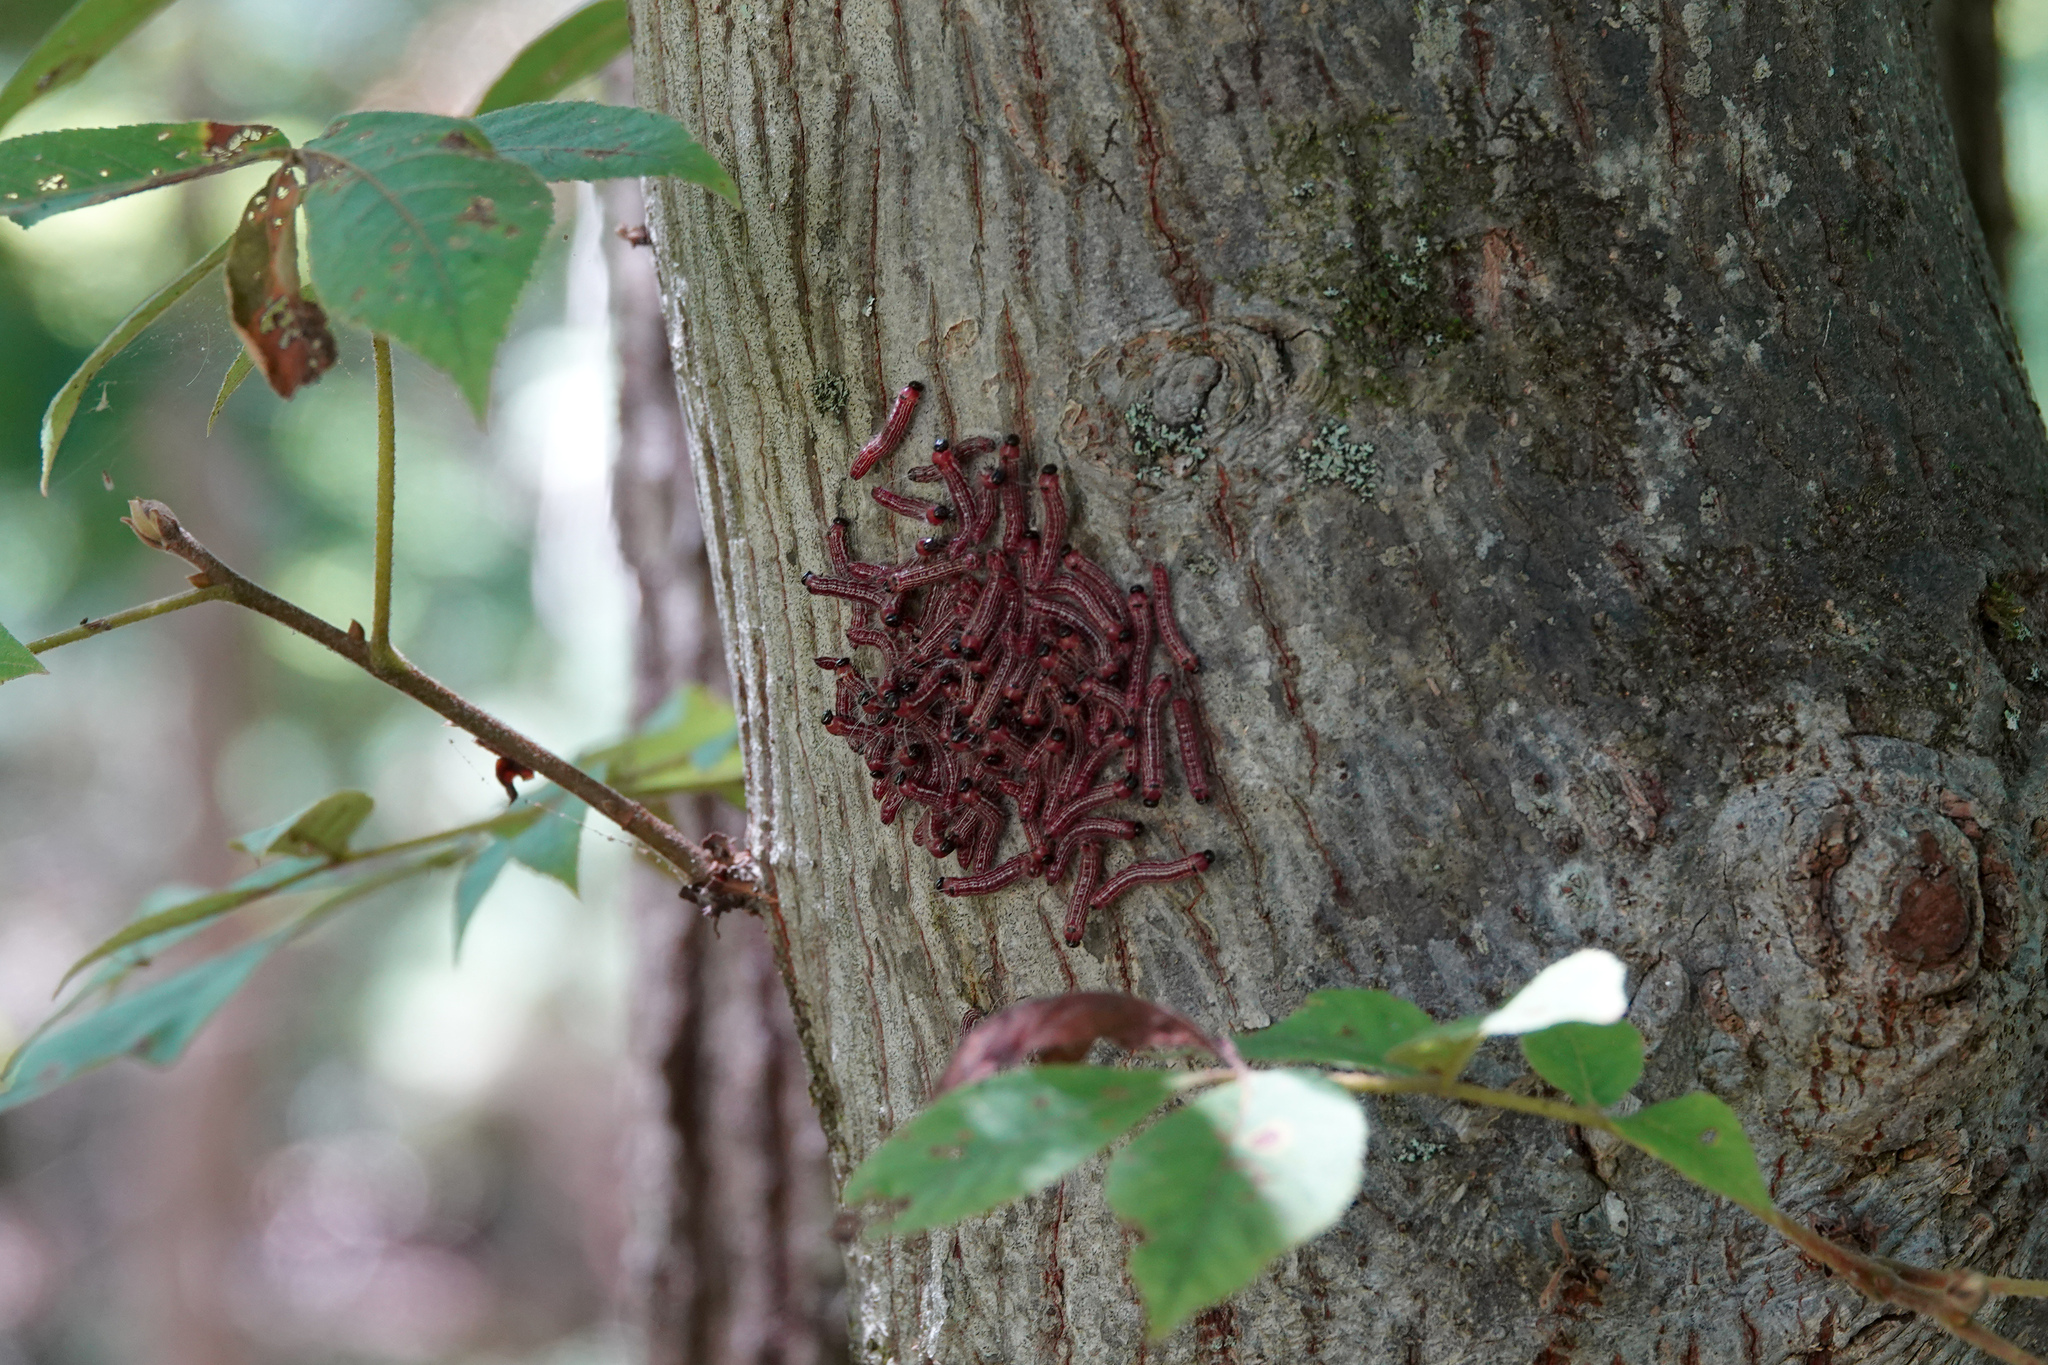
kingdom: Animalia
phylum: Arthropoda
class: Insecta
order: Lepidoptera
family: Notodontidae
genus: Datana
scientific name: Datana integerrima
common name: Walnut caterpillar
